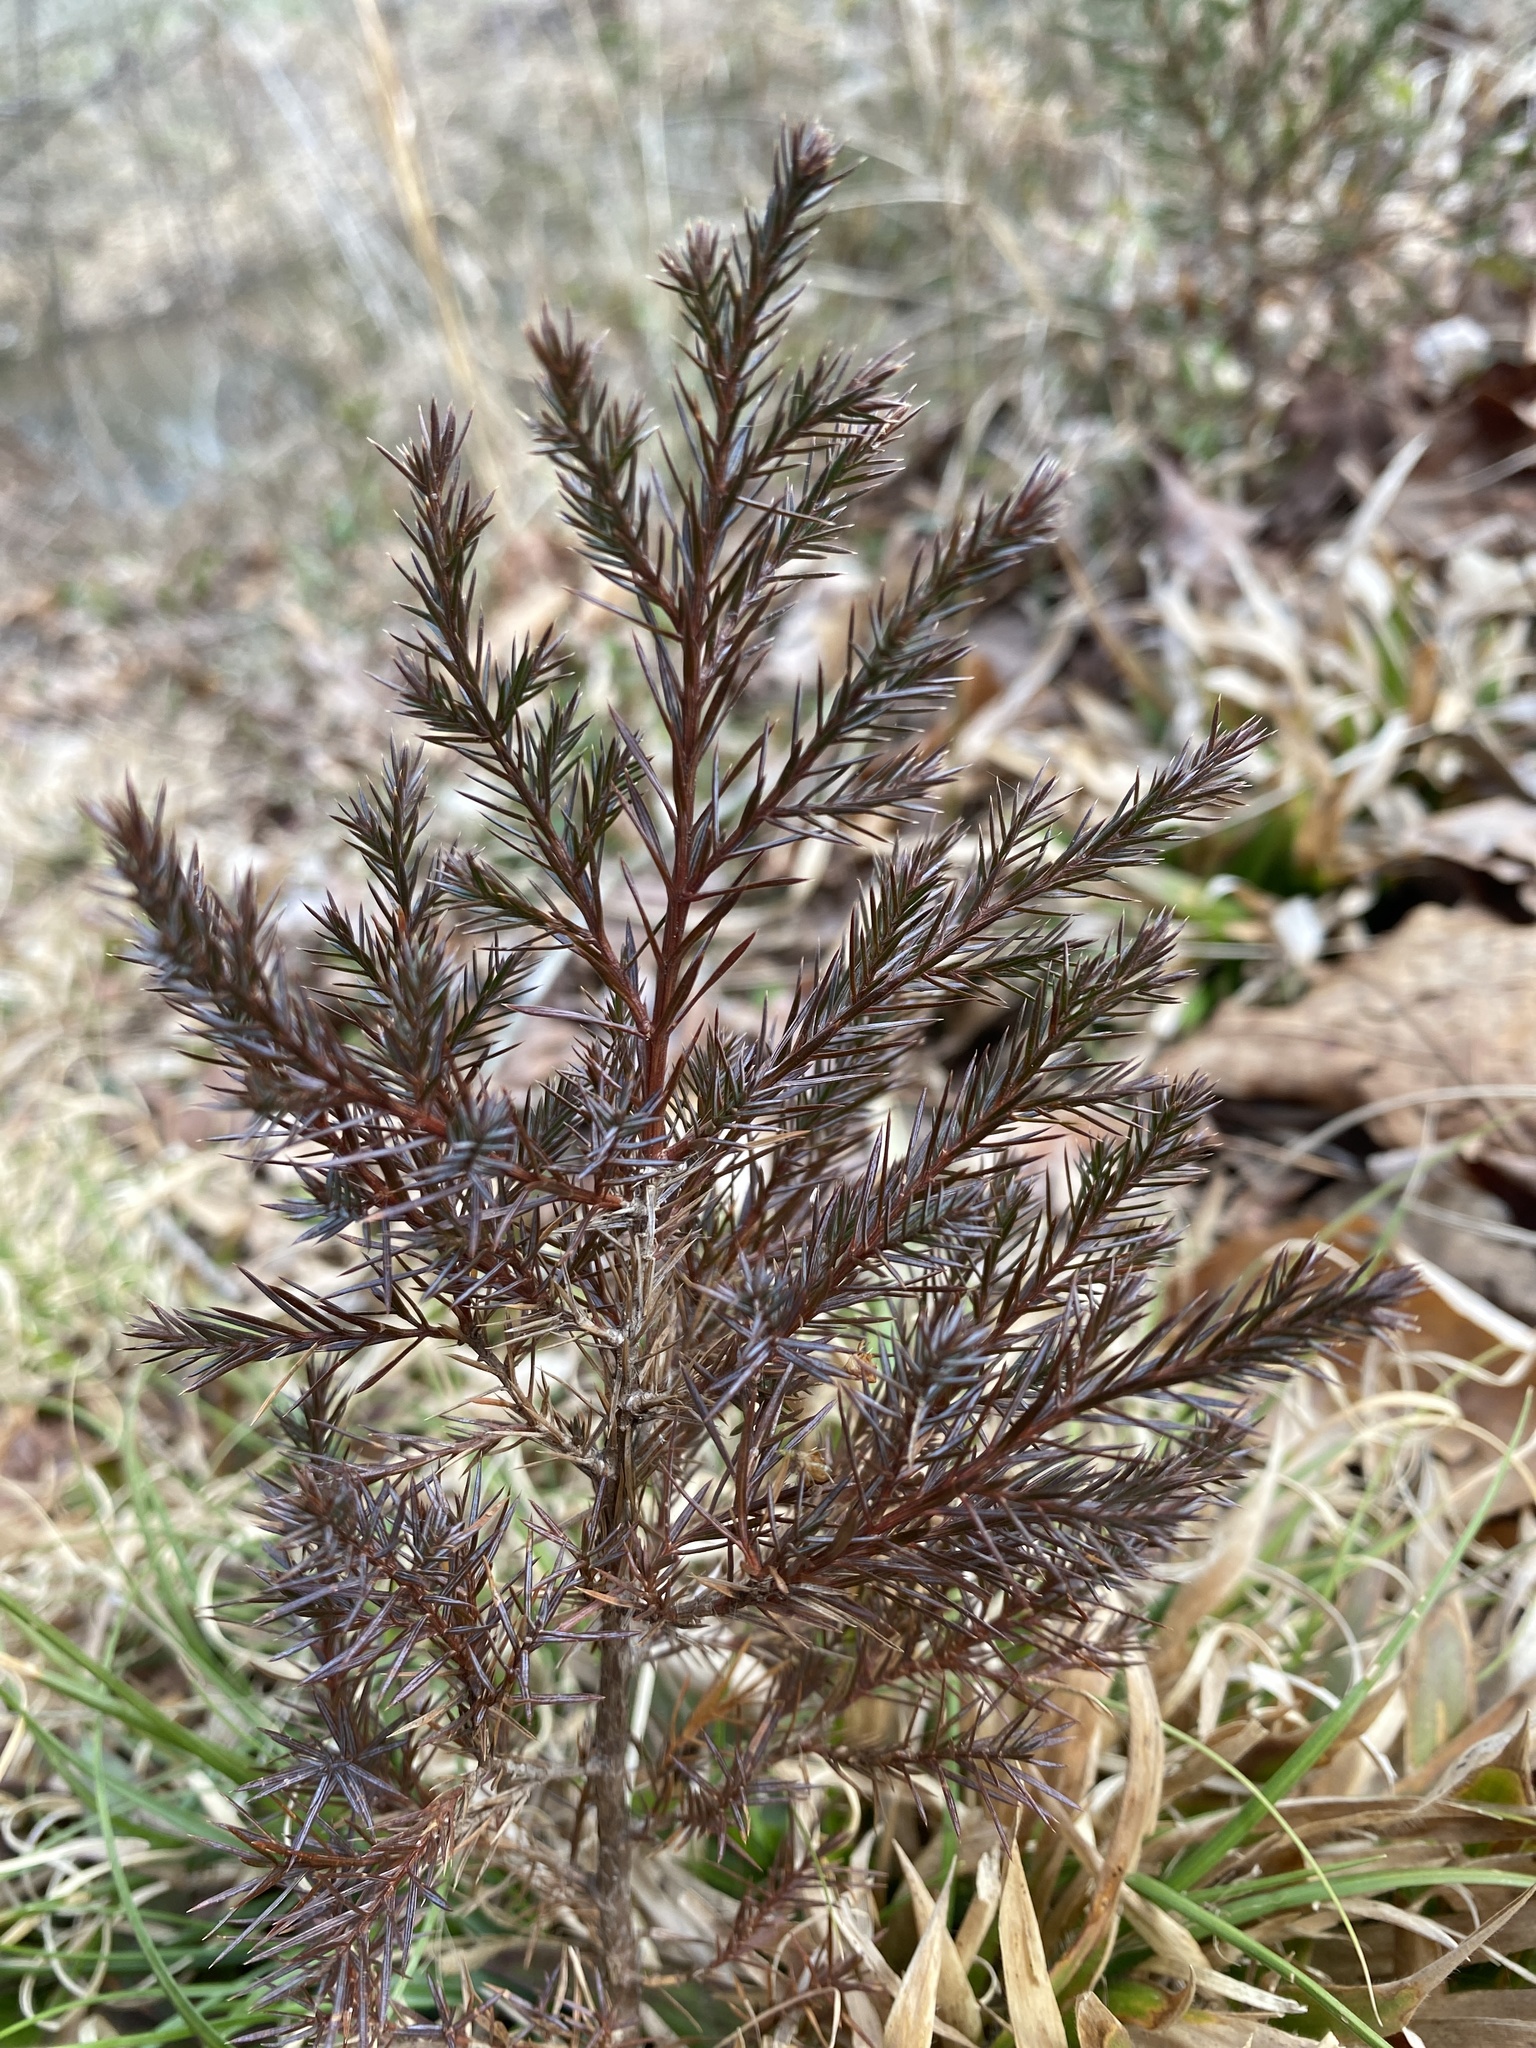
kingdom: Plantae
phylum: Tracheophyta
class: Pinopsida
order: Pinales
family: Cupressaceae
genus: Juniperus
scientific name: Juniperus virginiana
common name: Red juniper
